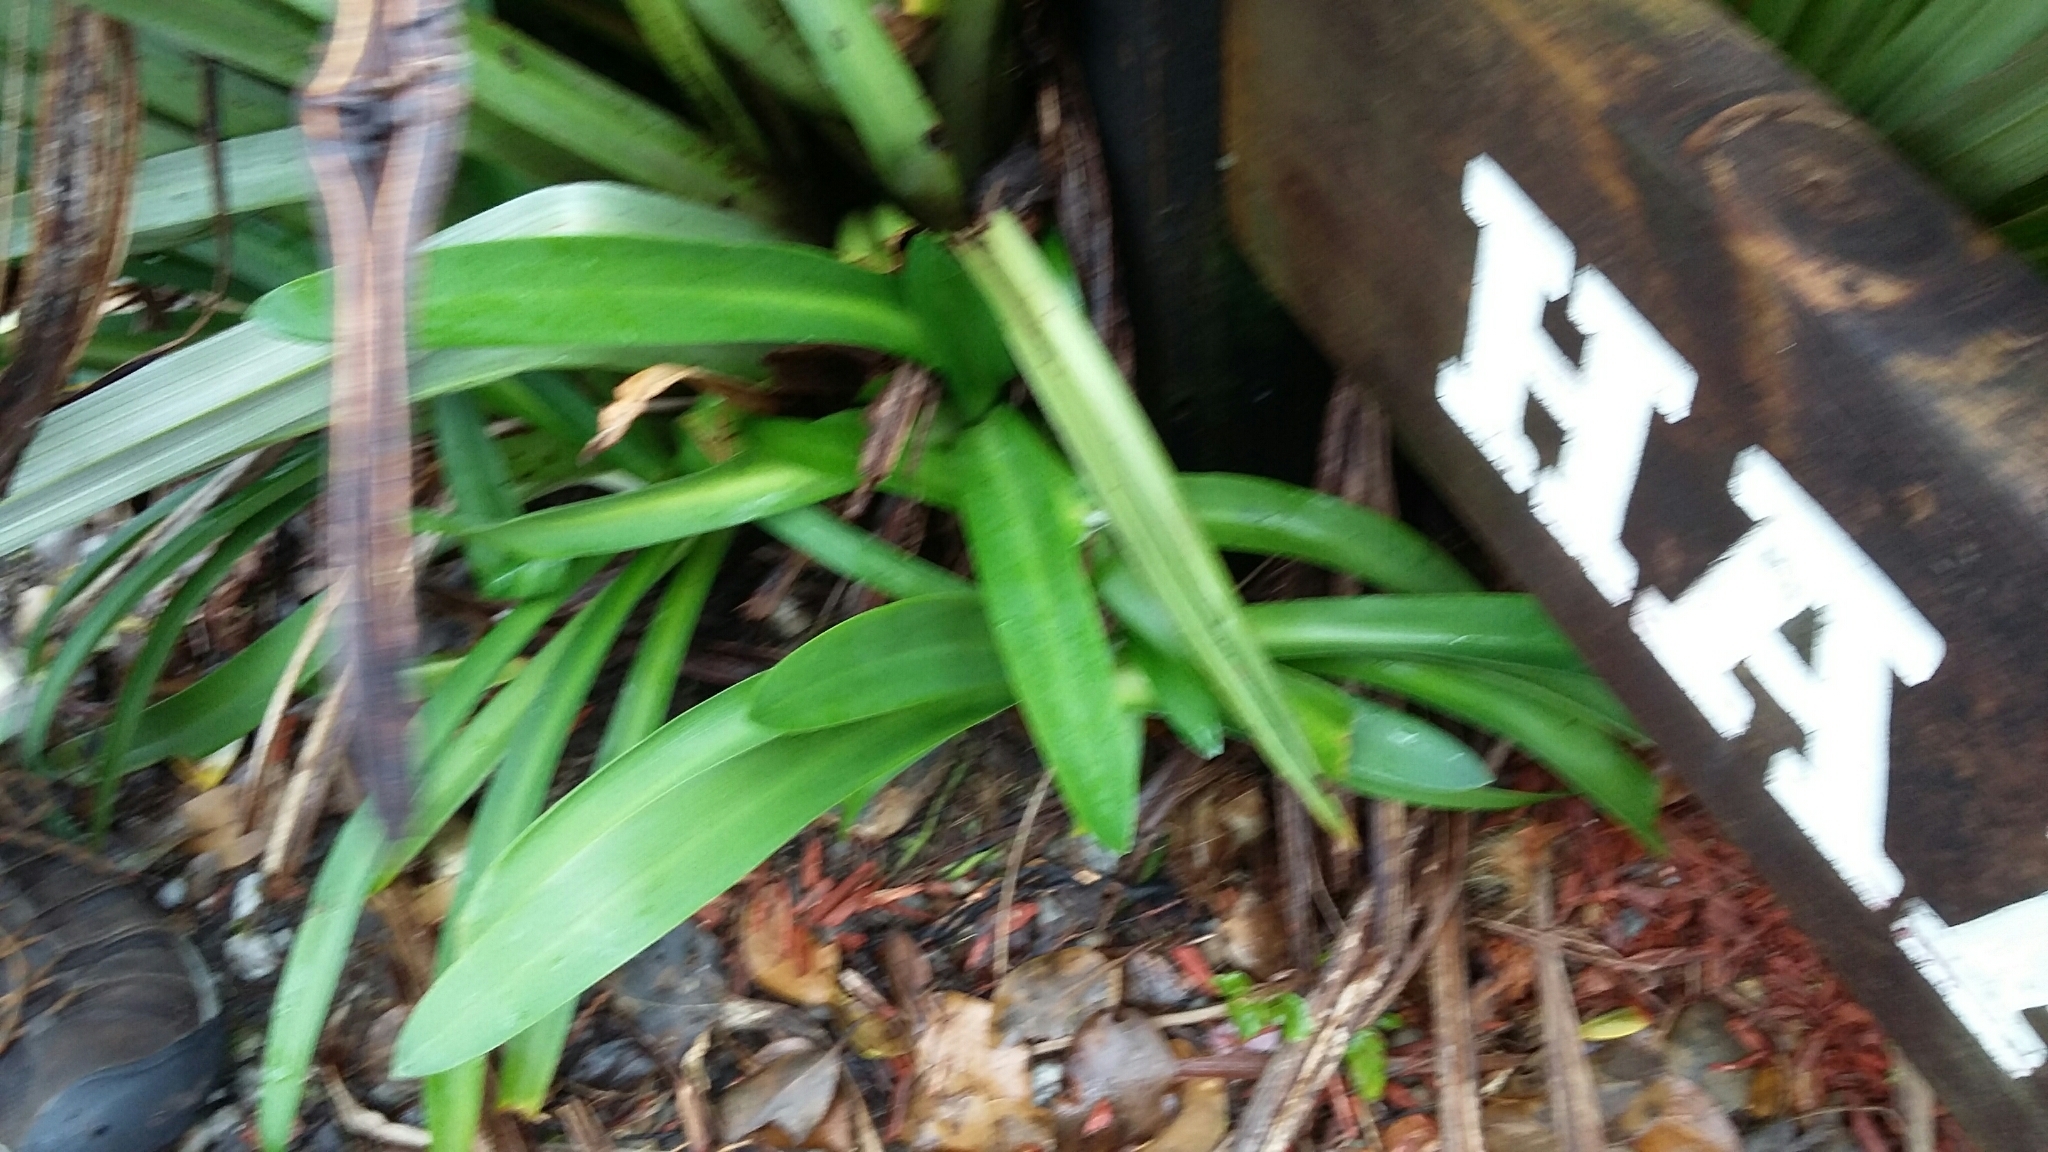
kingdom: Plantae
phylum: Tracheophyta
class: Liliopsida
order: Asparagales
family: Amaryllidaceae
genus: Agapanthus
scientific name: Agapanthus praecox
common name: African-lily
